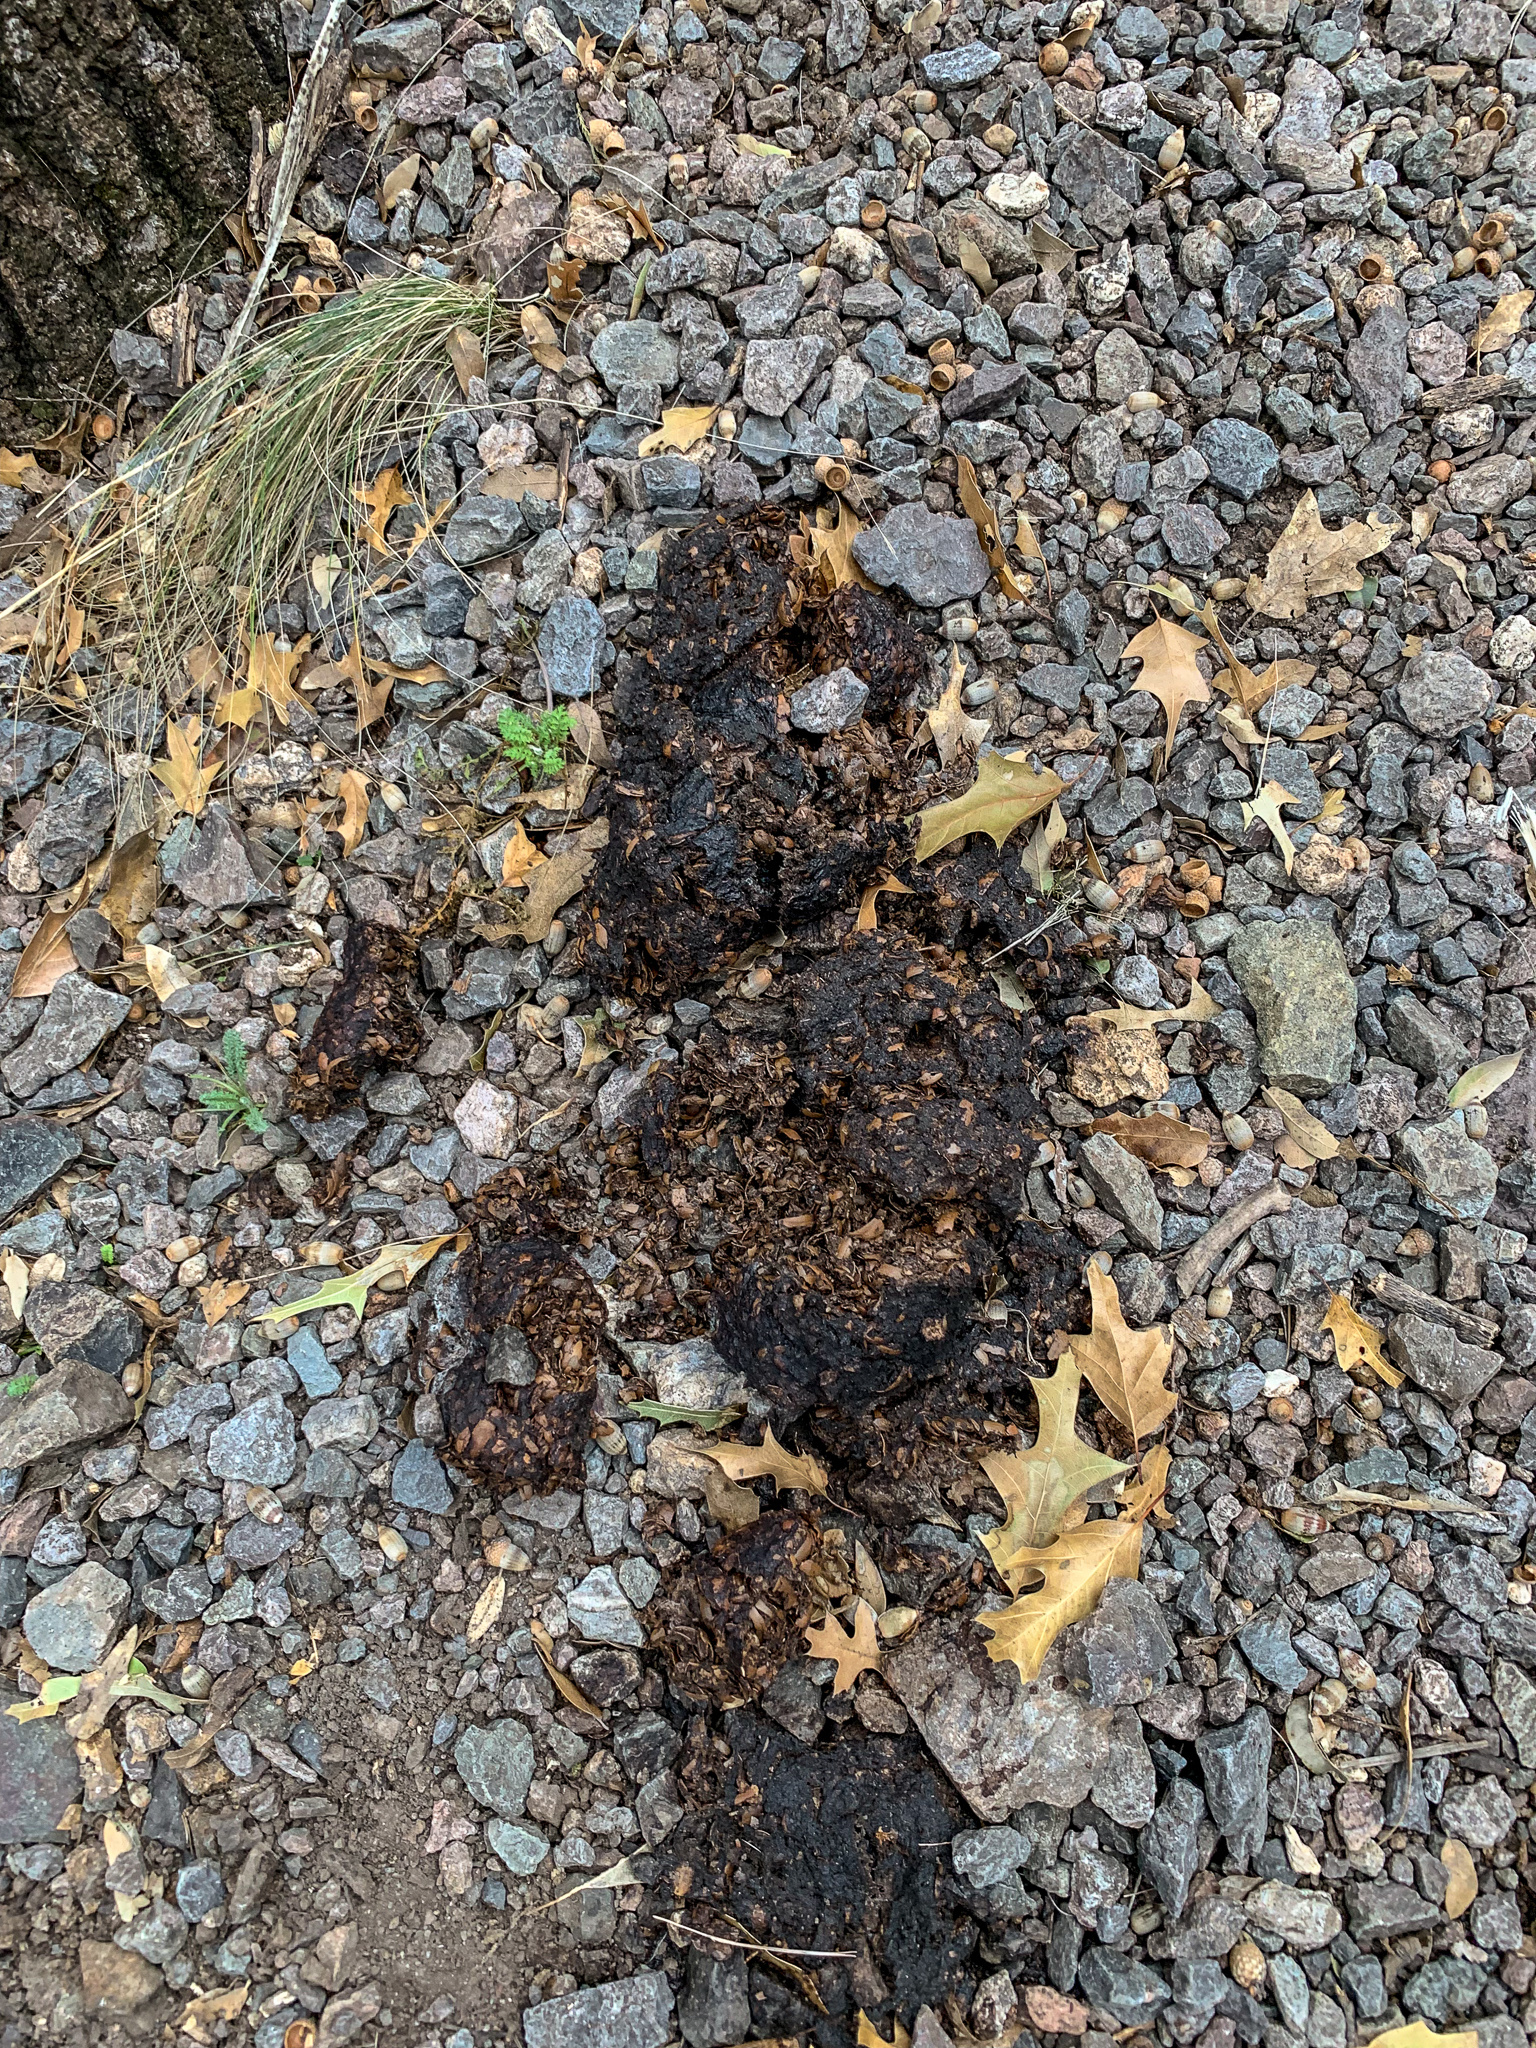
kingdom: Animalia
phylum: Chordata
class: Mammalia
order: Carnivora
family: Ursidae
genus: Ursus
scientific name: Ursus americanus
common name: American black bear
